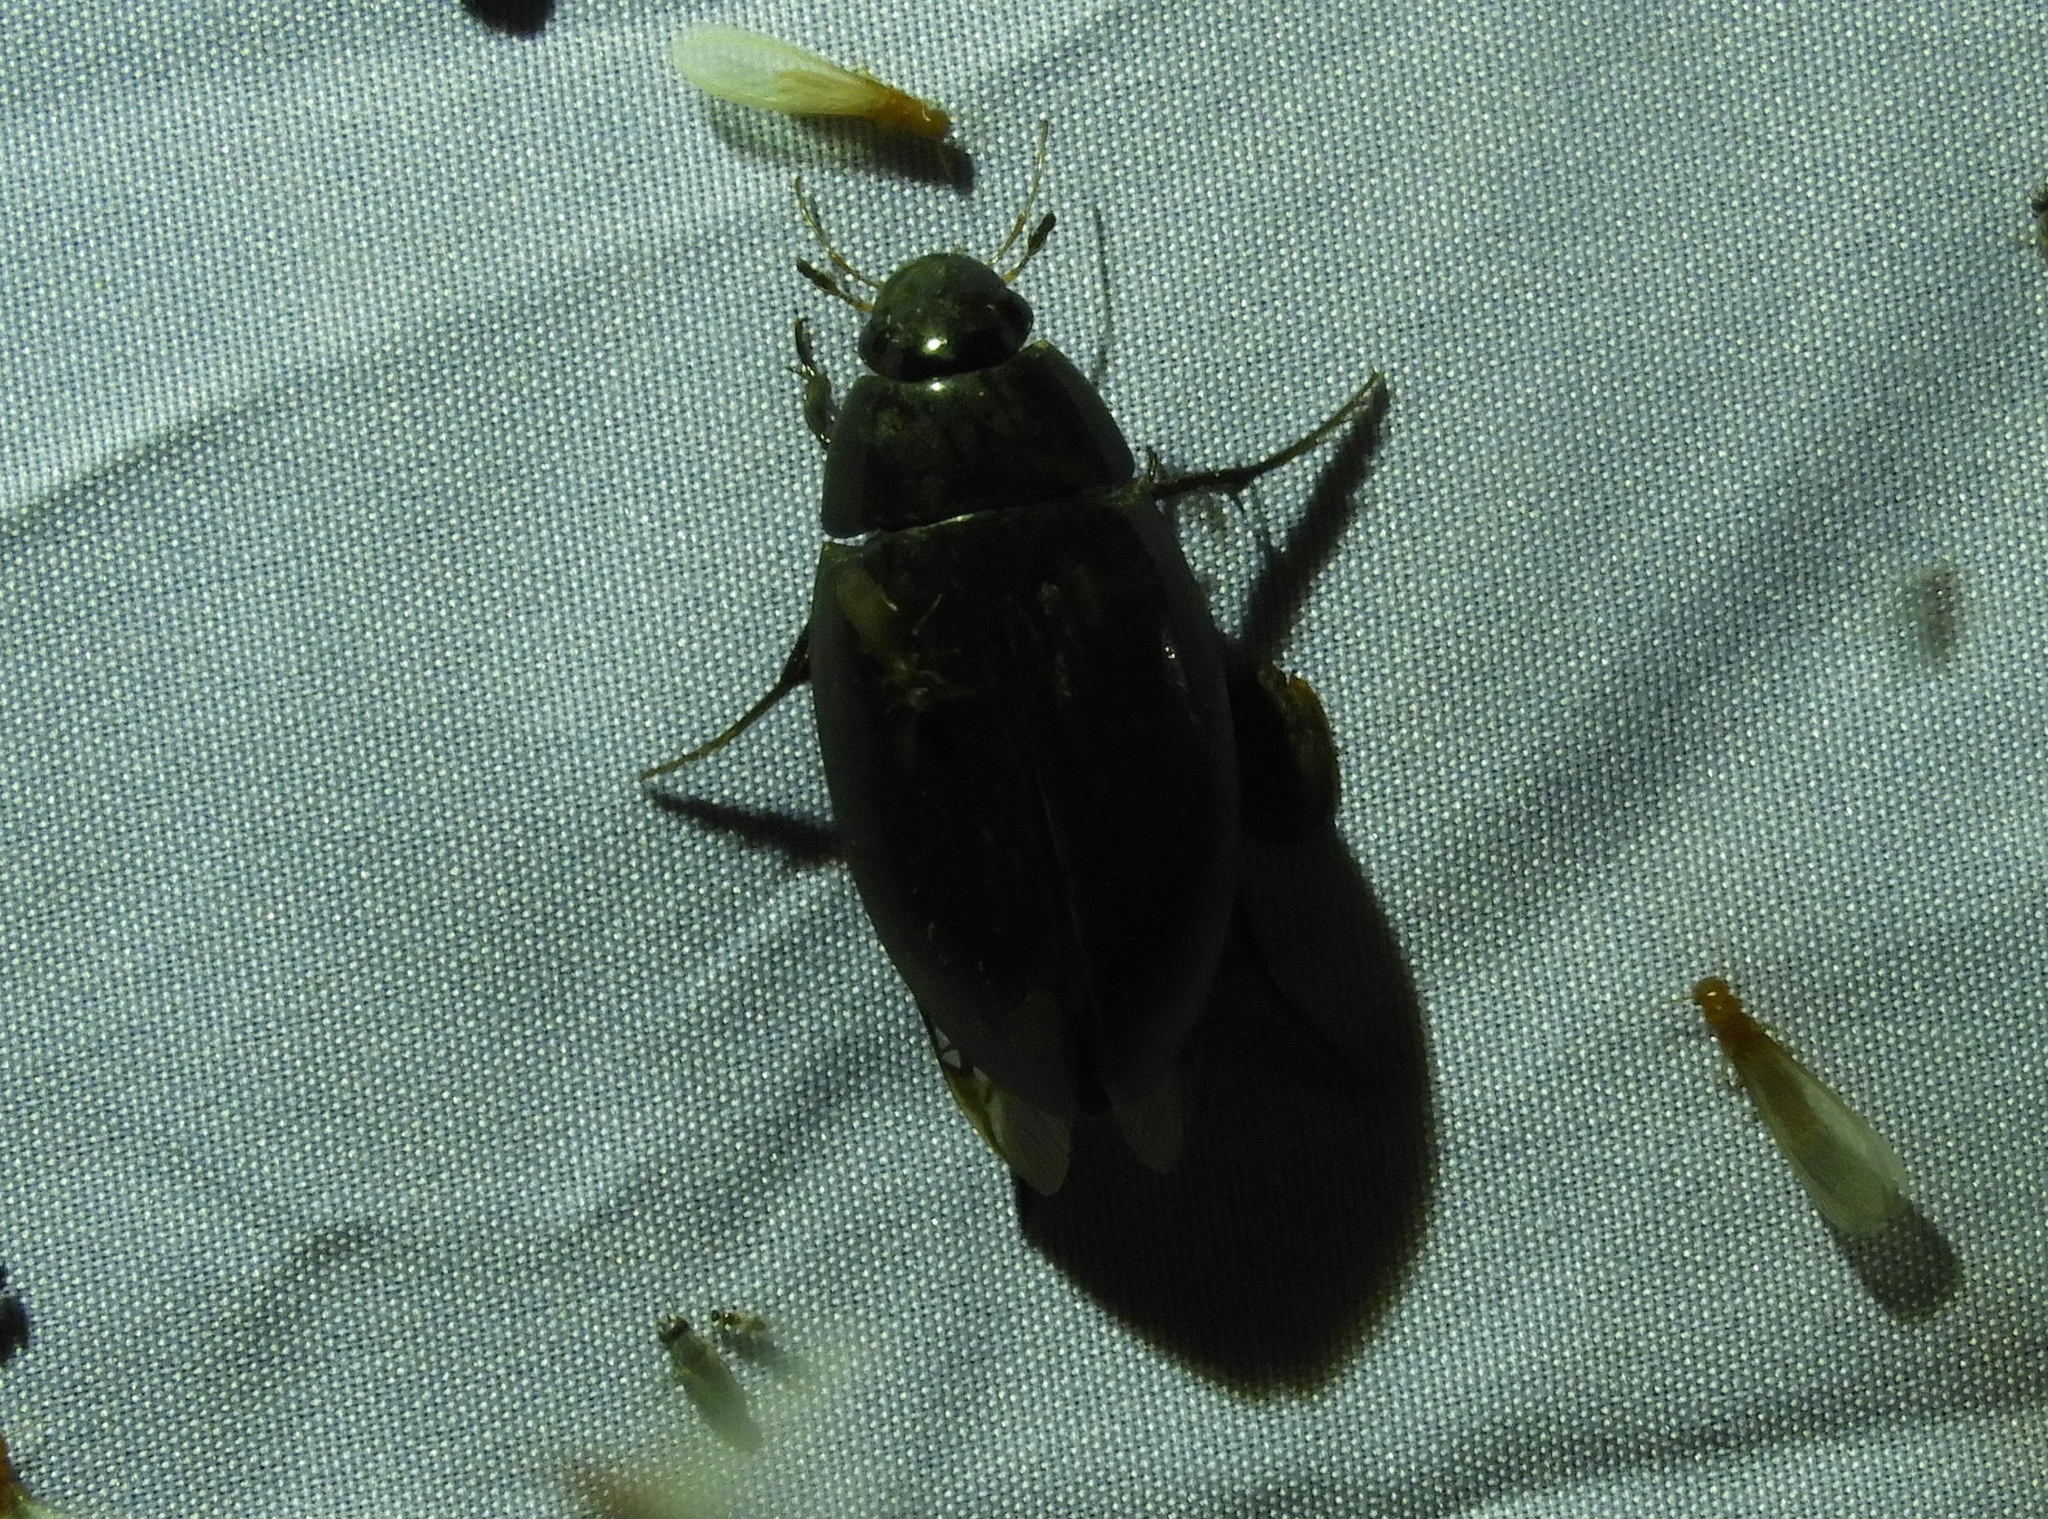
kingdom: Animalia
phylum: Arthropoda
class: Insecta
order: Coleoptera
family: Hydrophilidae
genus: Hydrophilus
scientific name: Hydrophilus
